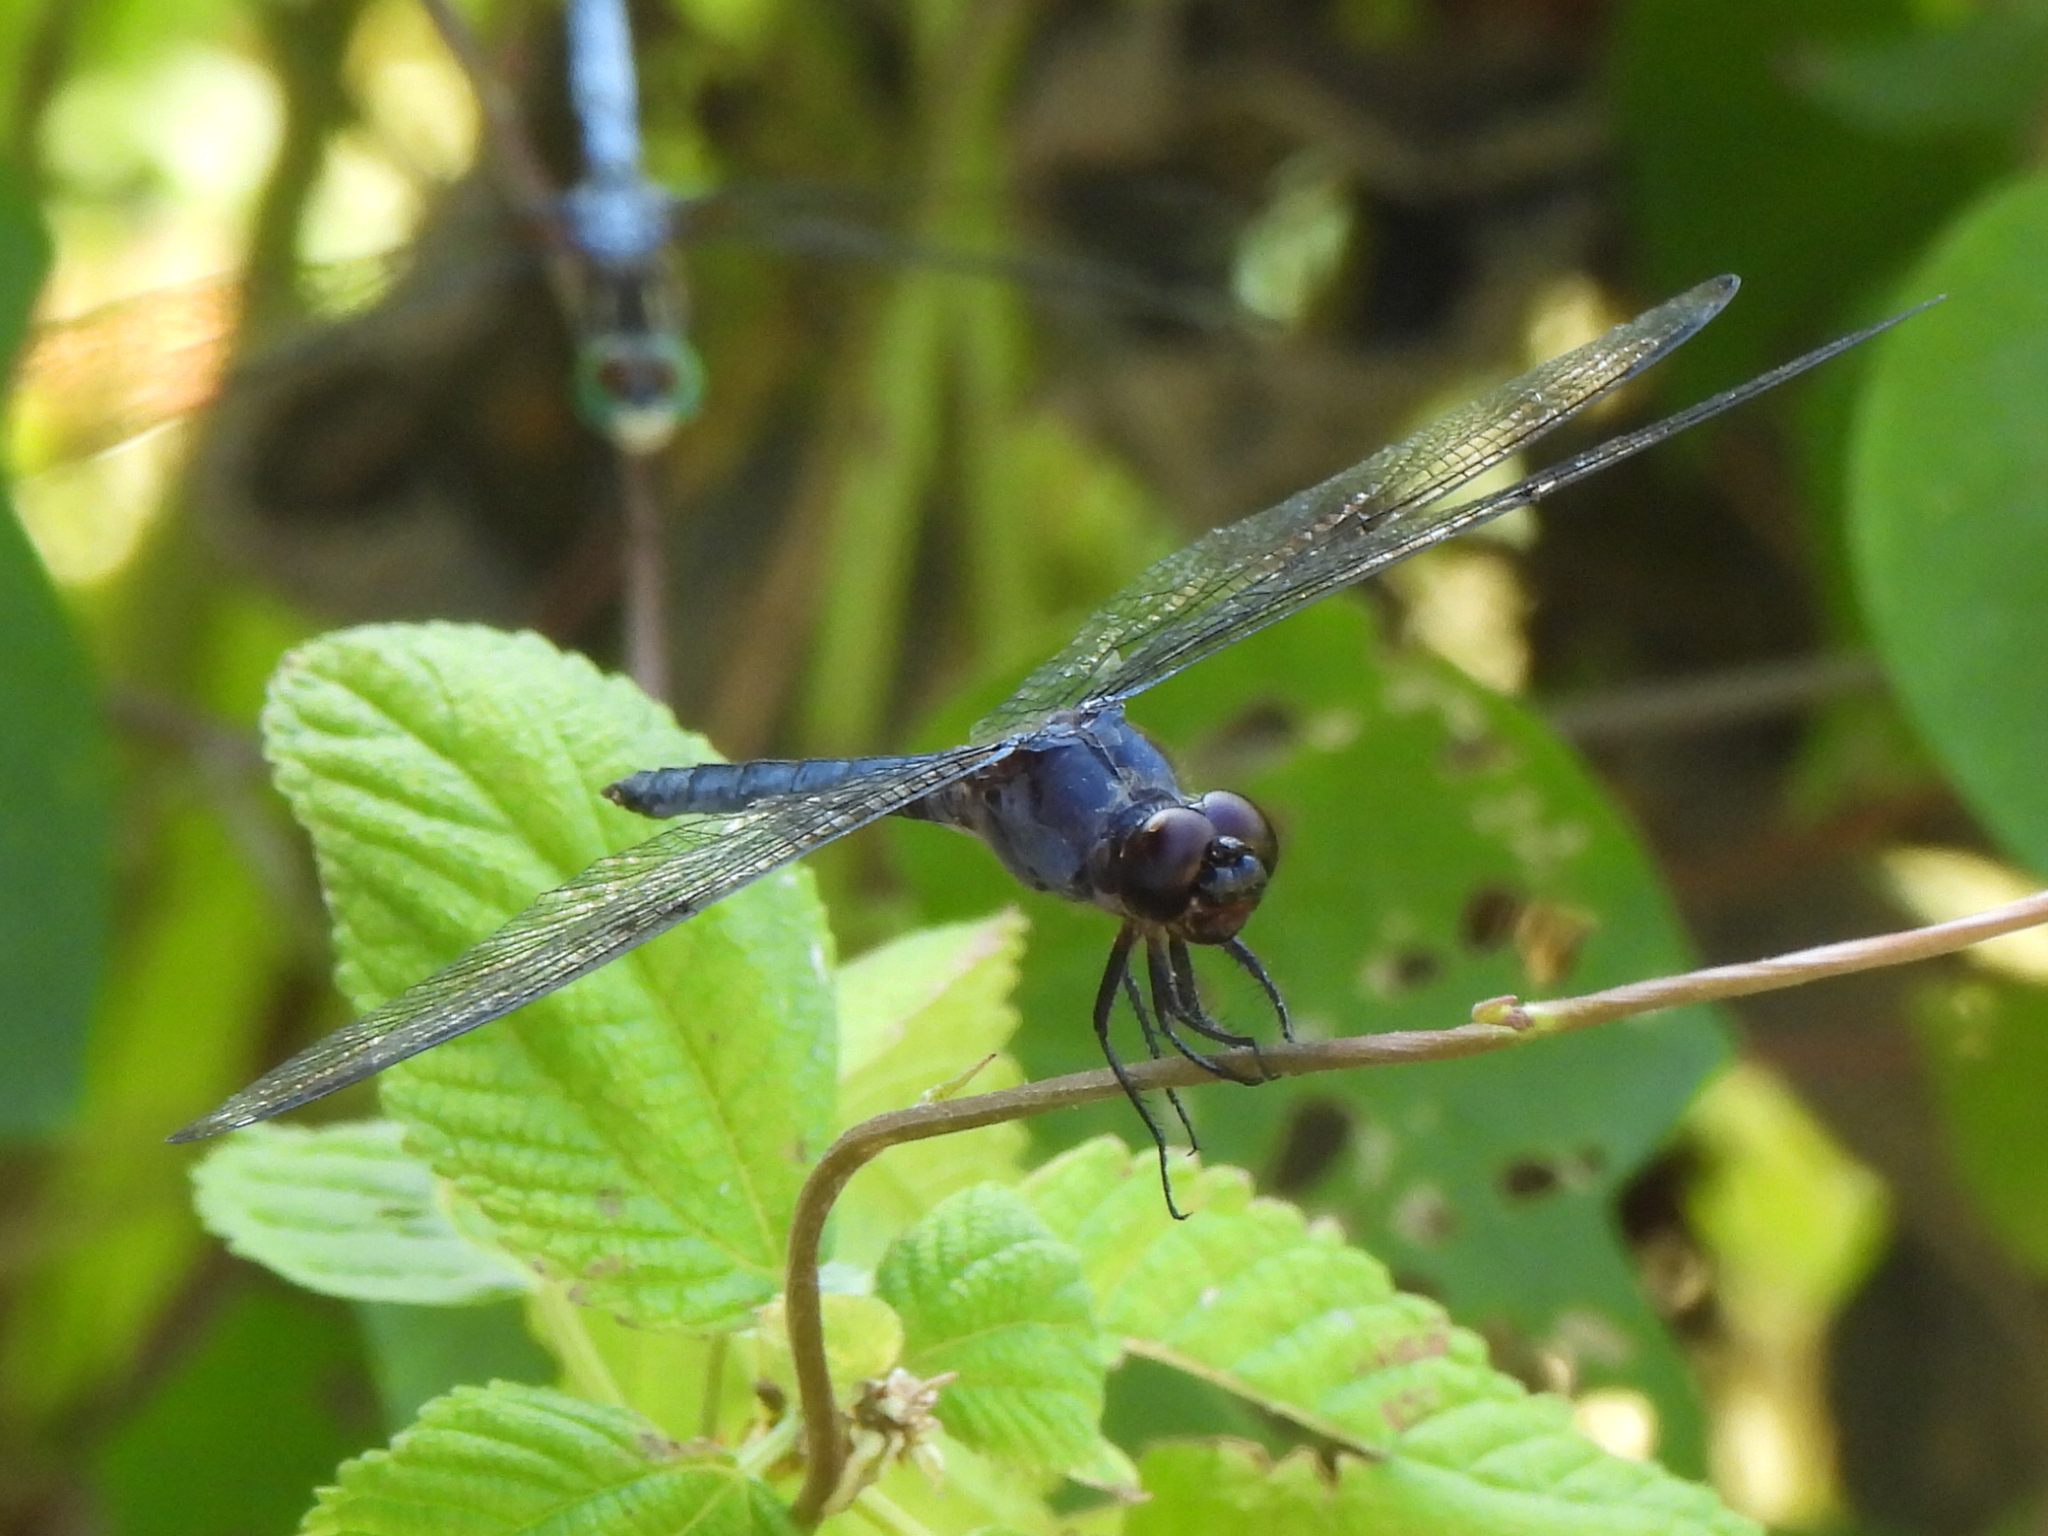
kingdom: Animalia
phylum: Arthropoda
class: Insecta
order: Odonata
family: Libellulidae
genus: Libellula
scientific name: Libellula incesta
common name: Slaty skimmer
